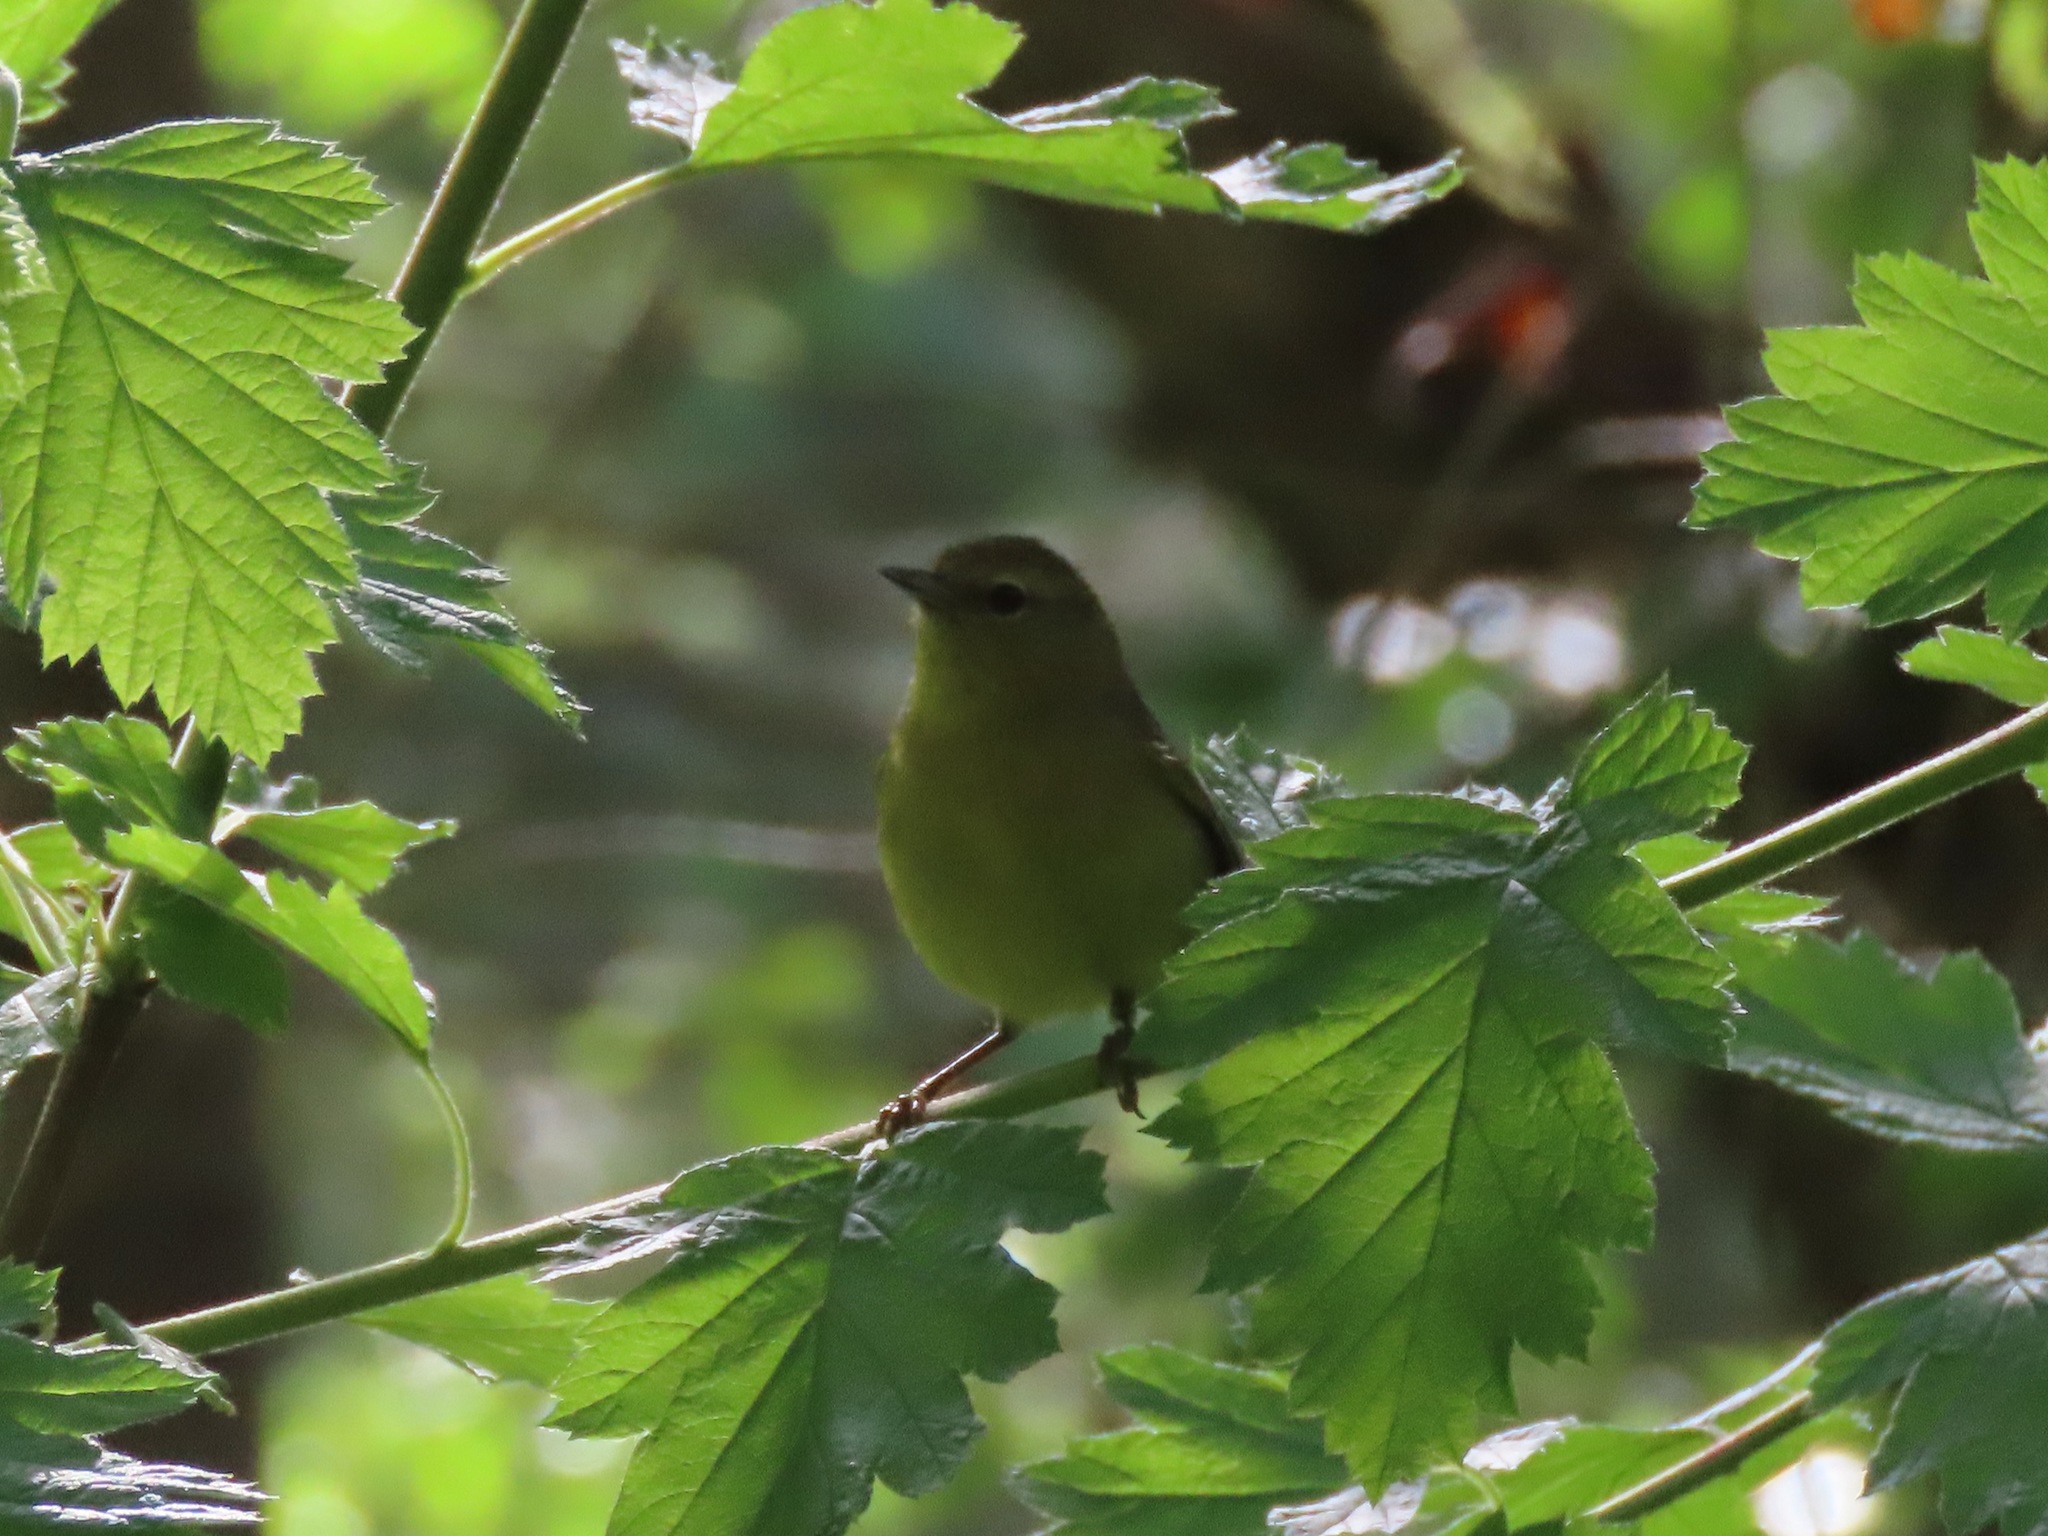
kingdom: Animalia
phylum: Chordata
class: Aves
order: Passeriformes
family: Parulidae
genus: Leiothlypis
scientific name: Leiothlypis celata
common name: Orange-crowned warbler
